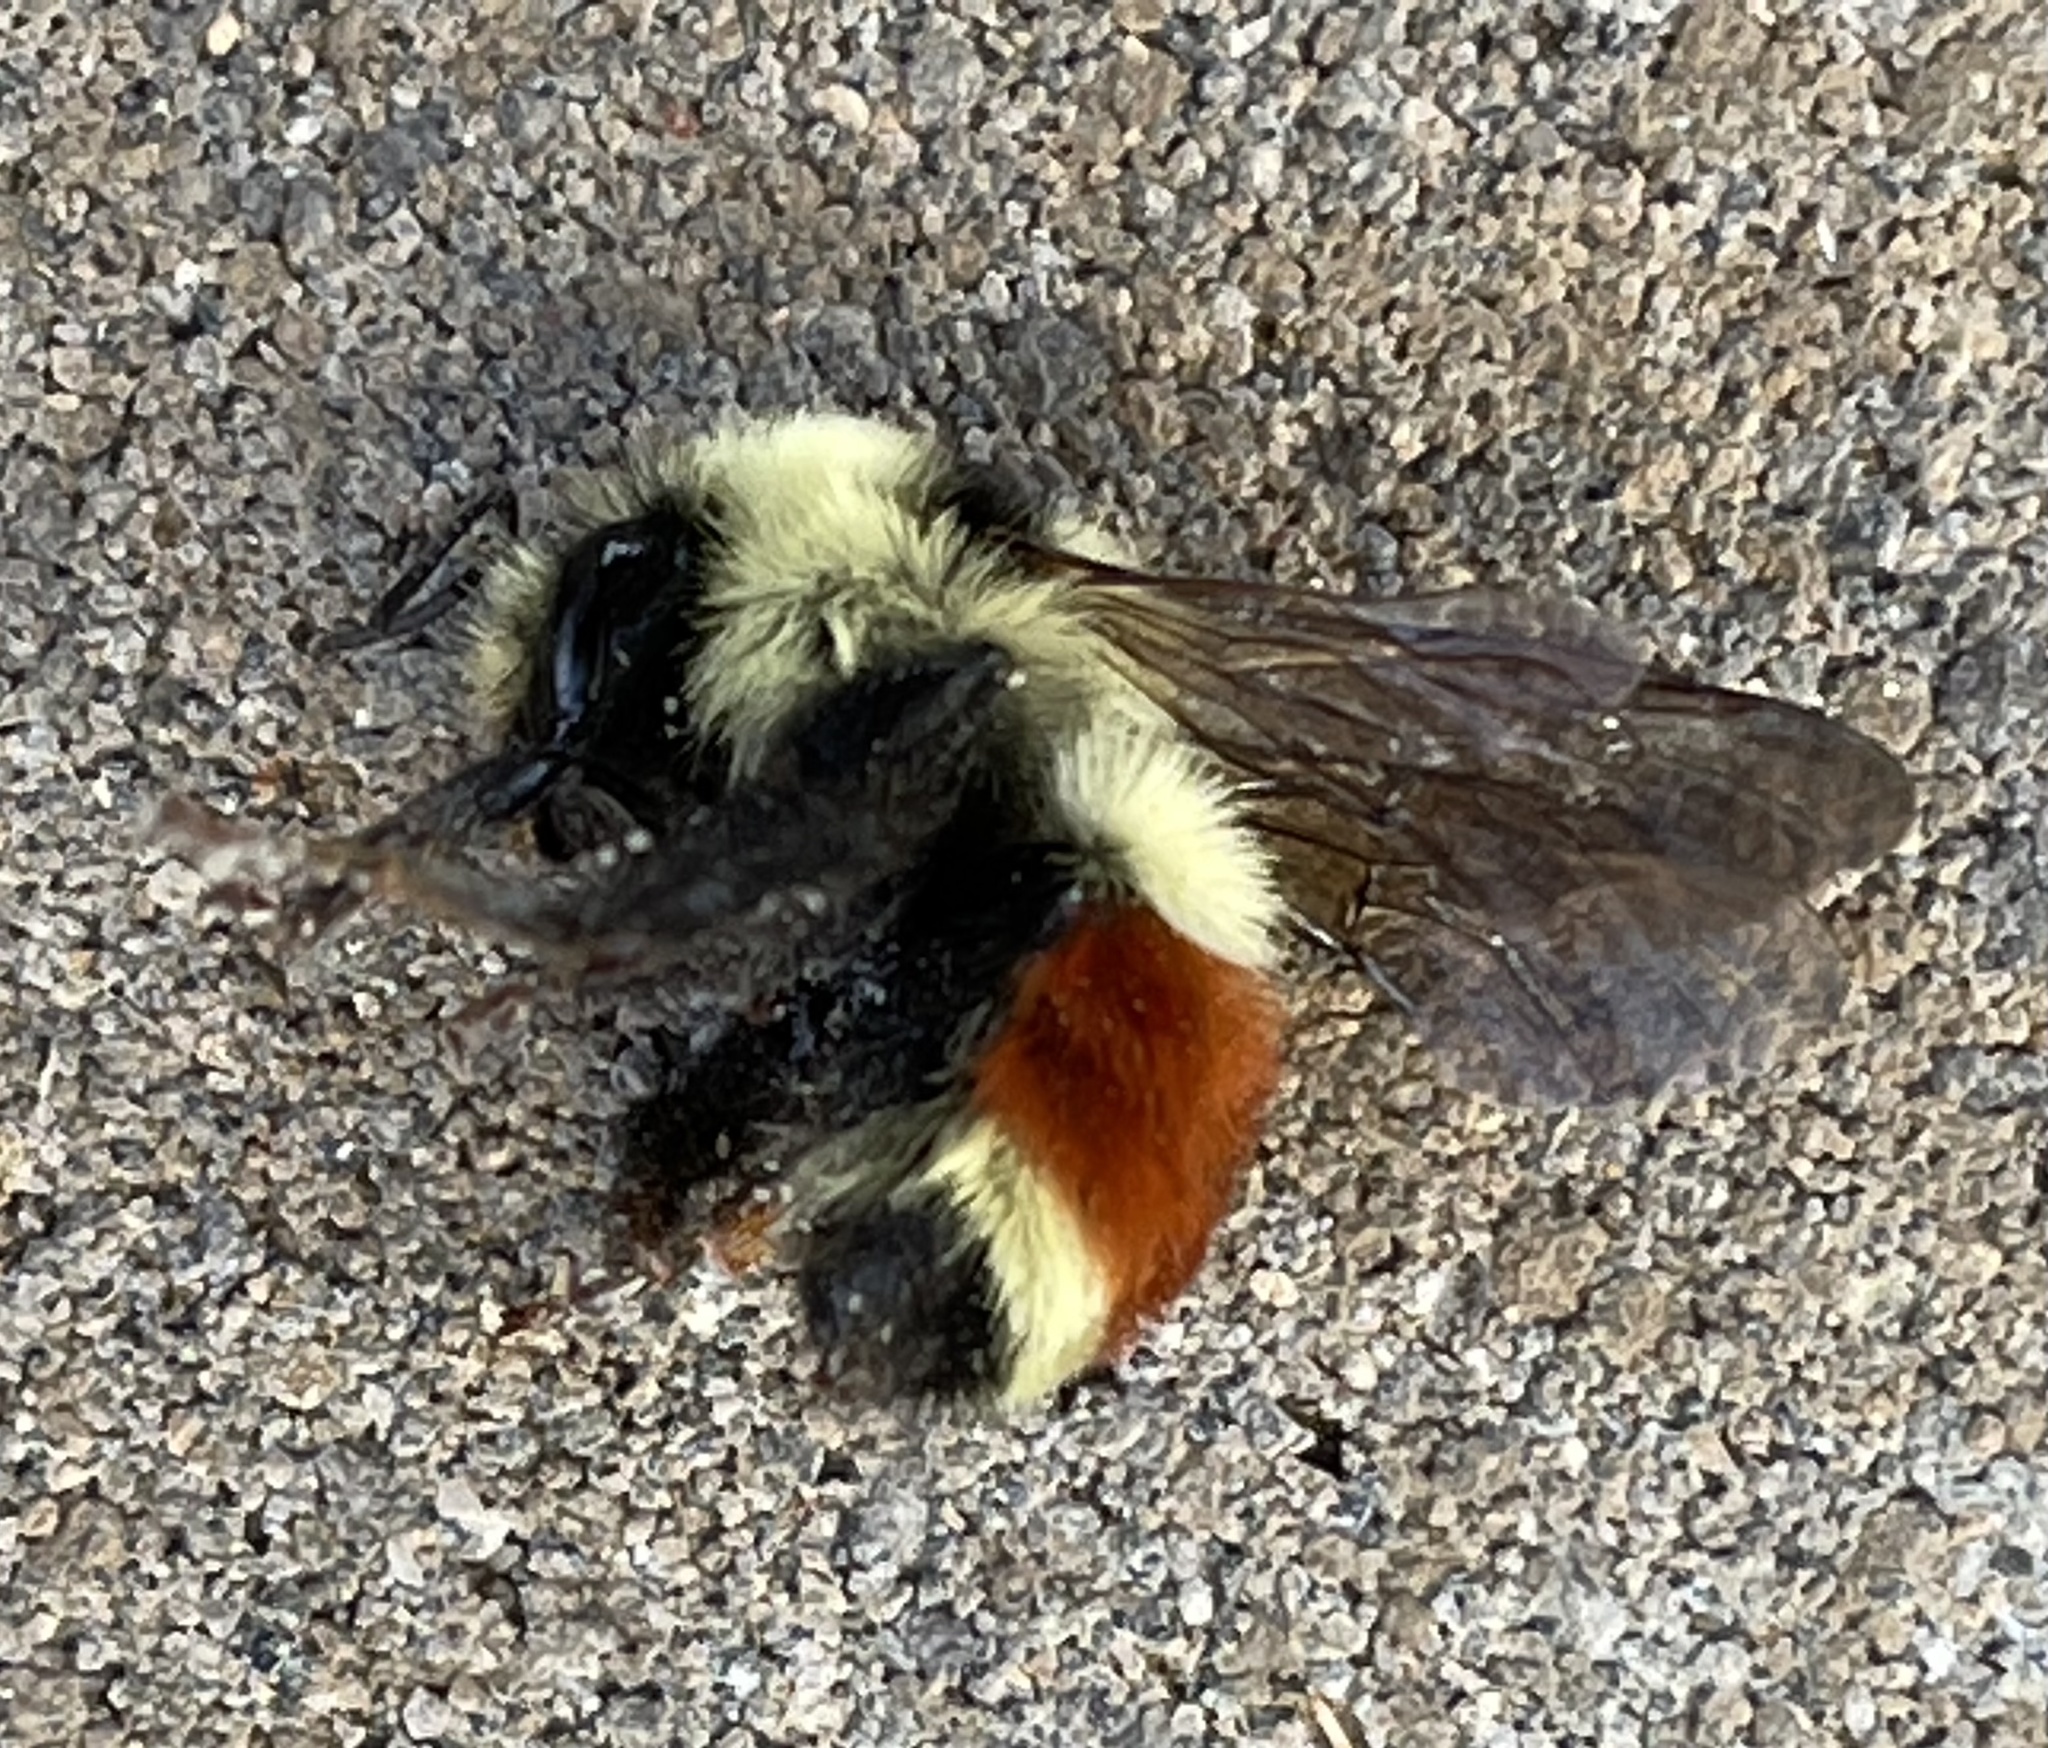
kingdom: Animalia
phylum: Arthropoda
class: Insecta
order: Hymenoptera
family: Apidae
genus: Bombus
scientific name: Bombus huntii
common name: Hunt bumble bee
